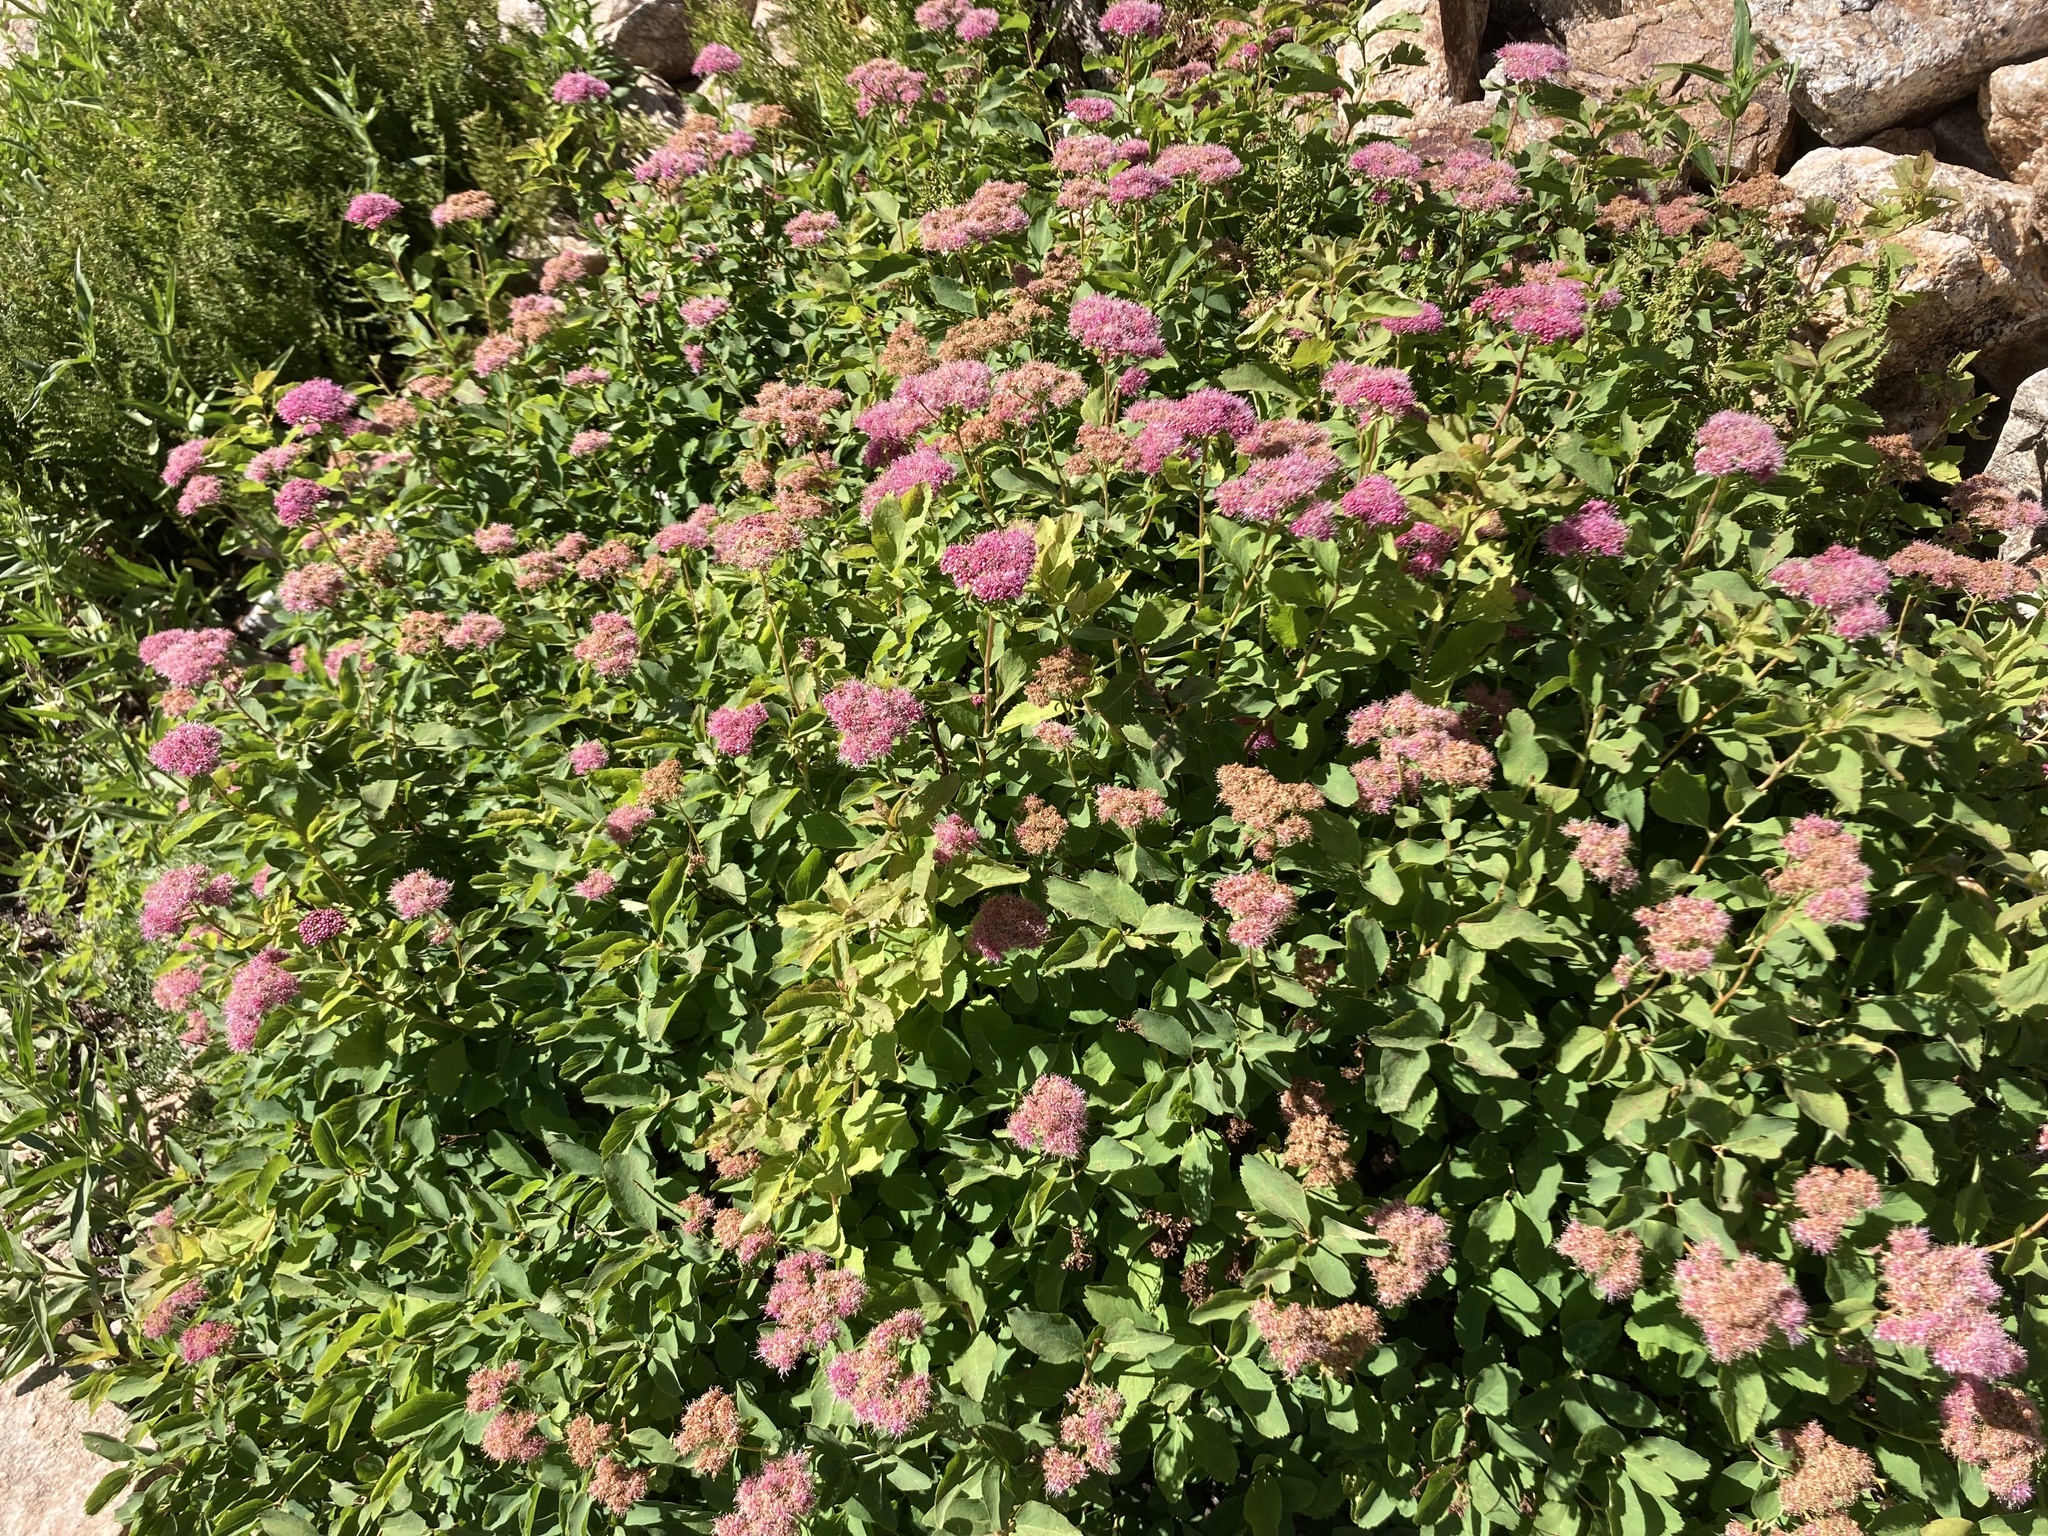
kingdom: Plantae
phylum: Tracheophyta
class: Magnoliopsida
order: Rosales
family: Rosaceae
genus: Spiraea
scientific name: Spiraea splendens
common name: Subalpine meadowsweet
